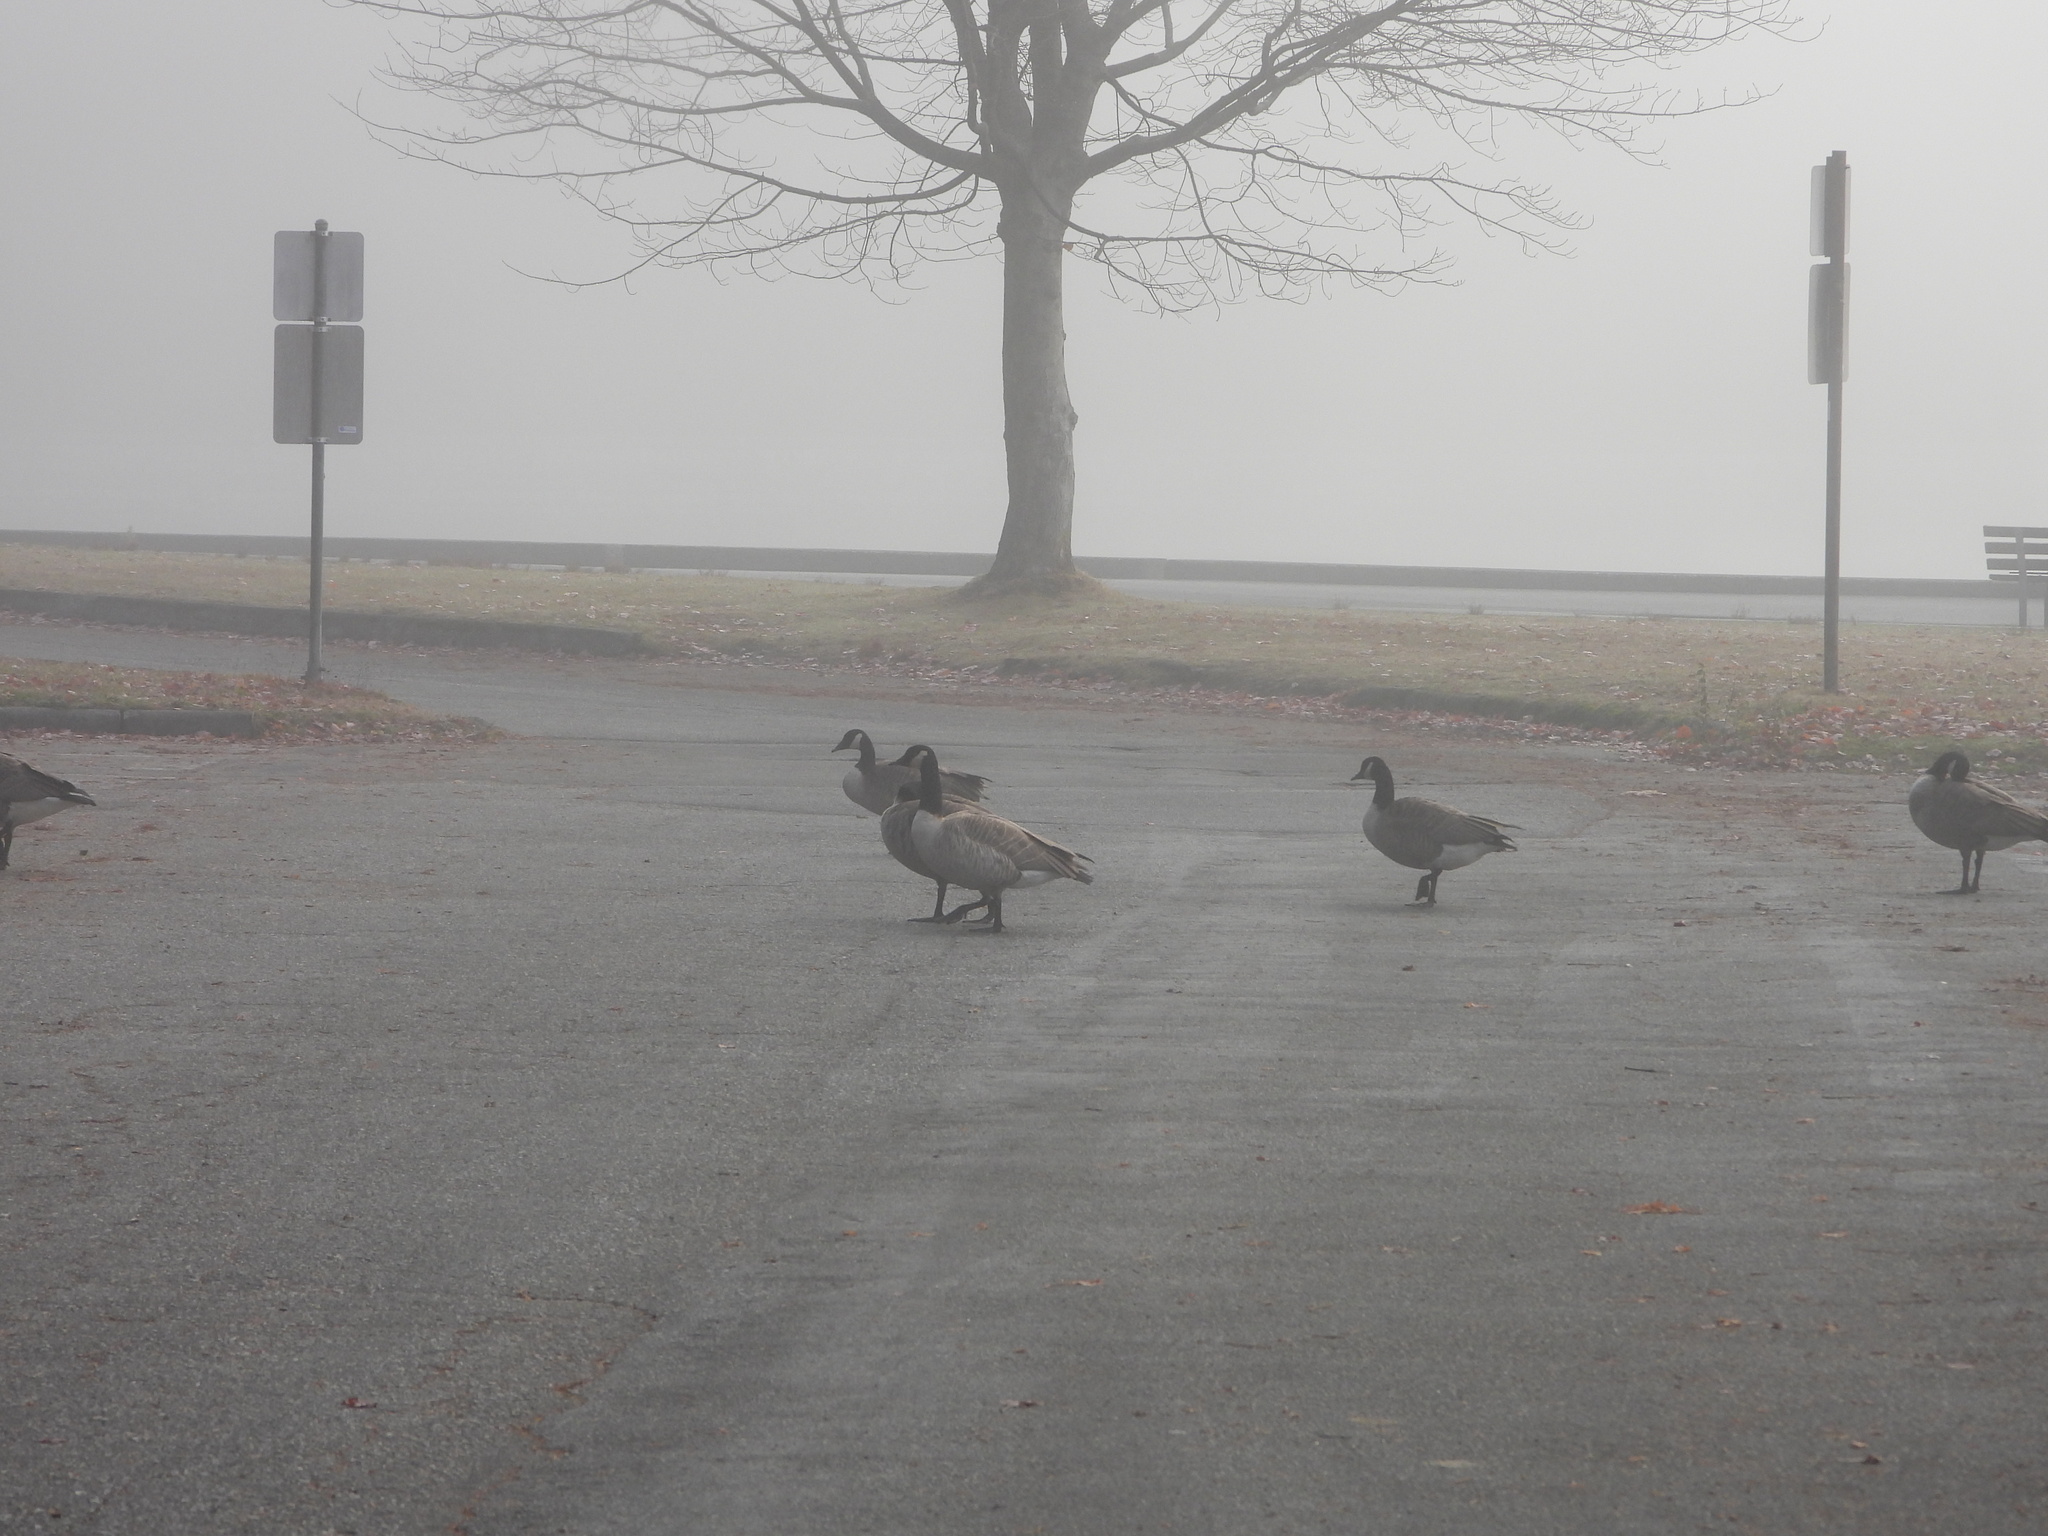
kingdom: Animalia
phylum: Chordata
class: Aves
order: Anseriformes
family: Anatidae
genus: Branta
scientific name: Branta canadensis
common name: Canada goose
